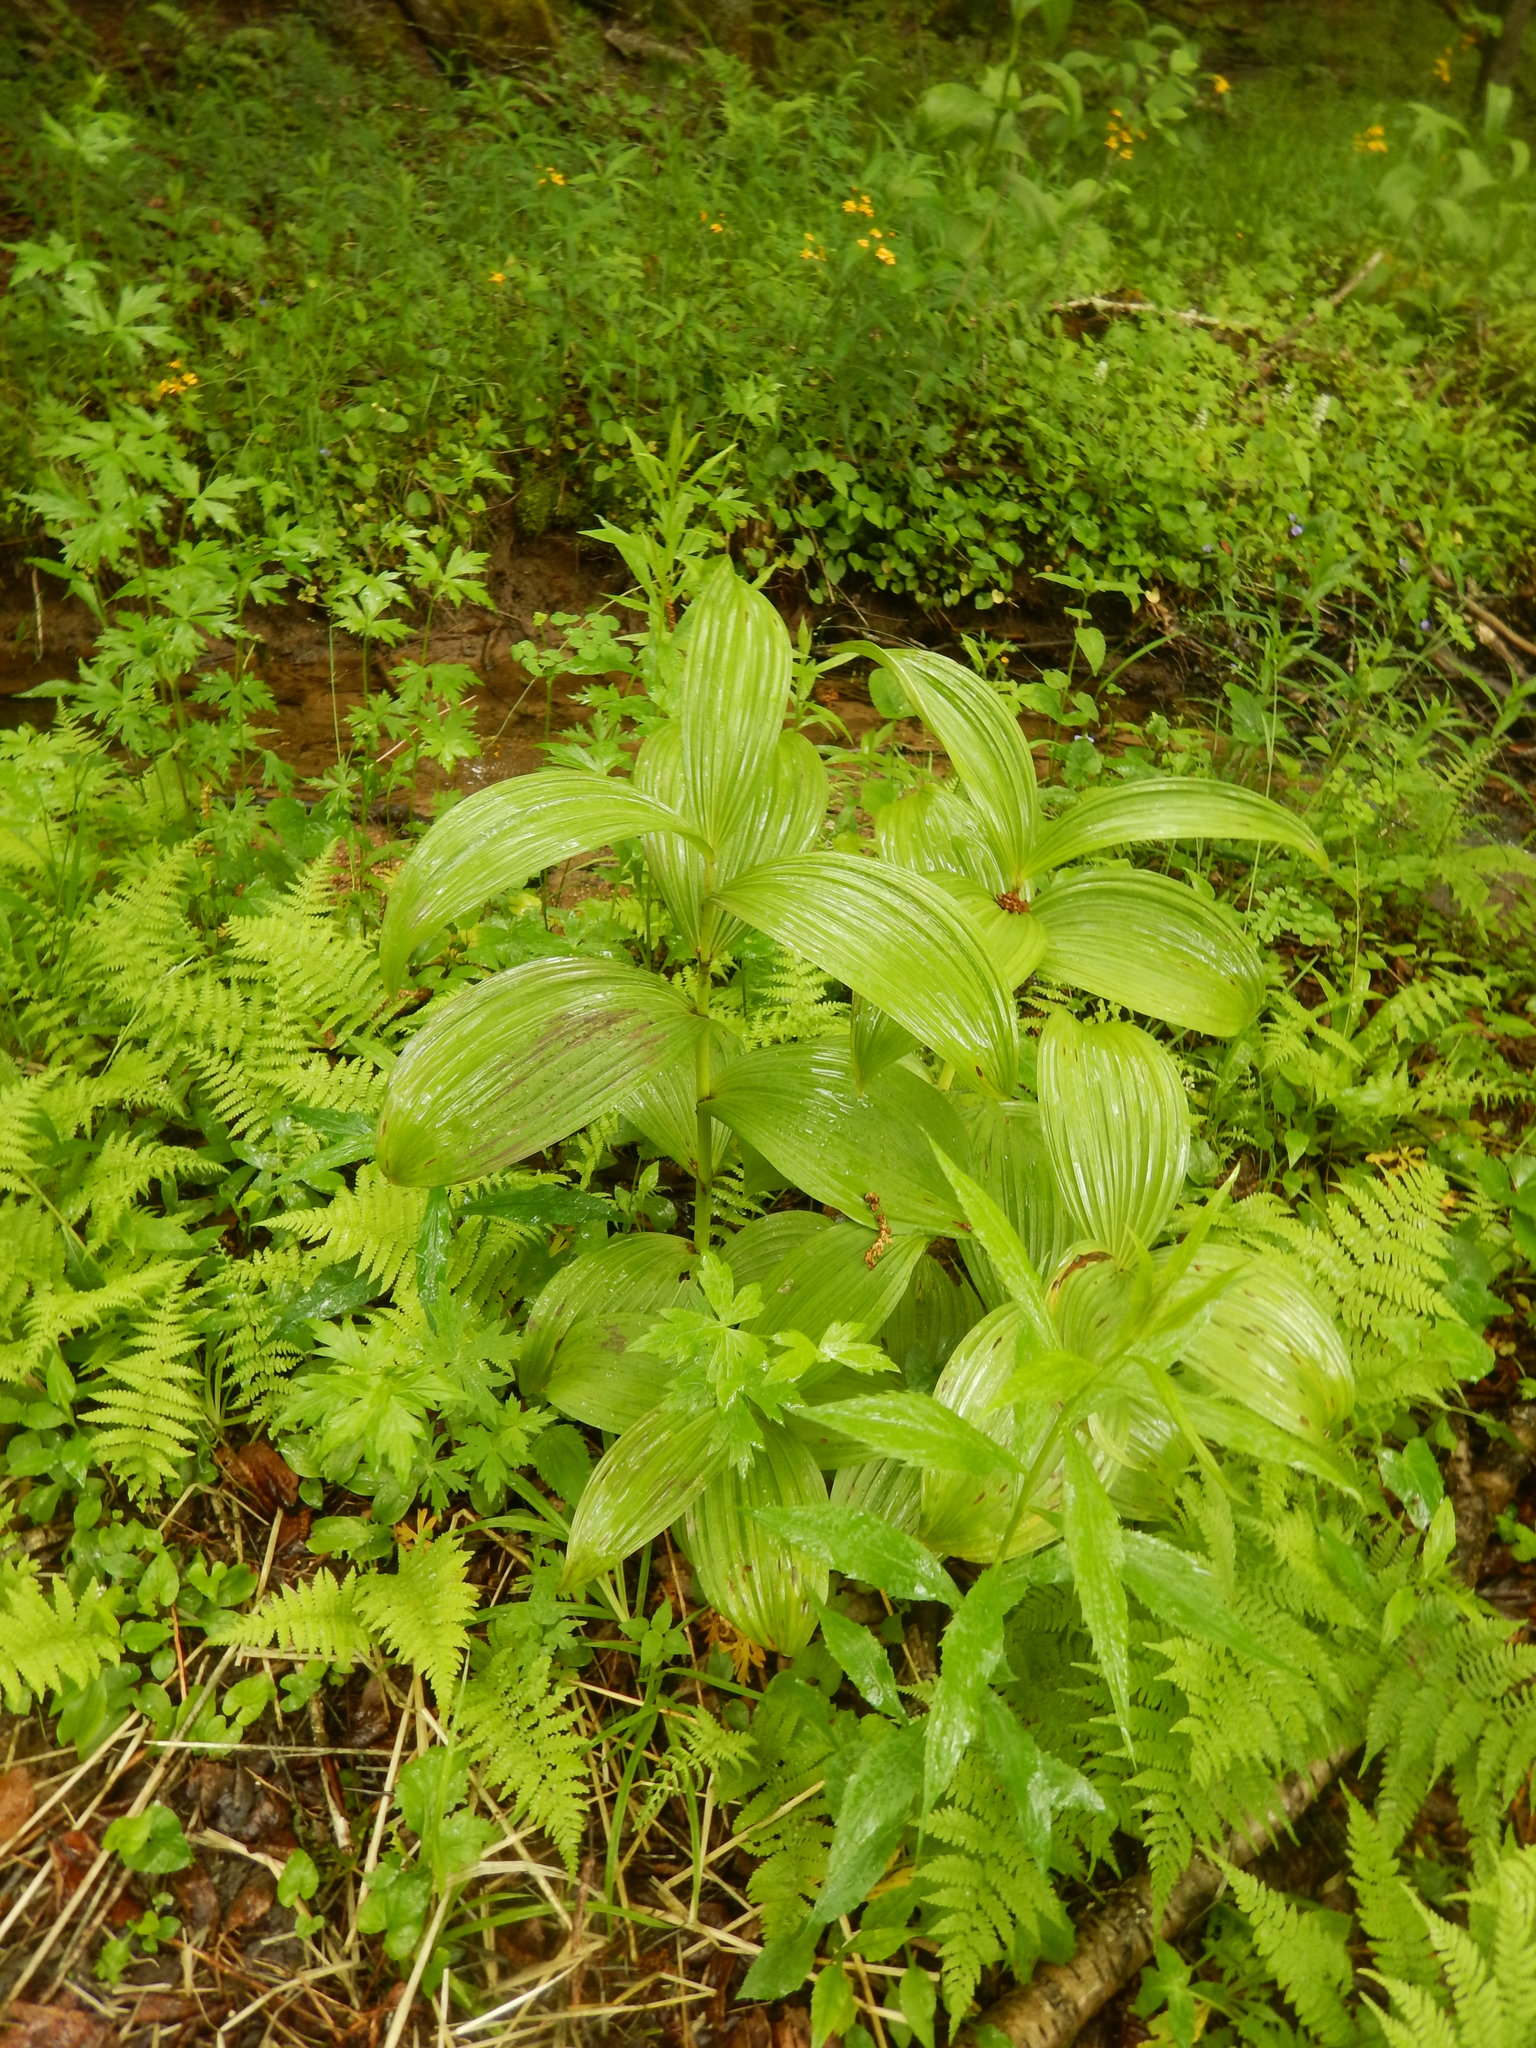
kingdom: Plantae
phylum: Tracheophyta
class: Liliopsida
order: Liliales
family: Melanthiaceae
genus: Veratrum
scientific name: Veratrum viride
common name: American false hellebore
